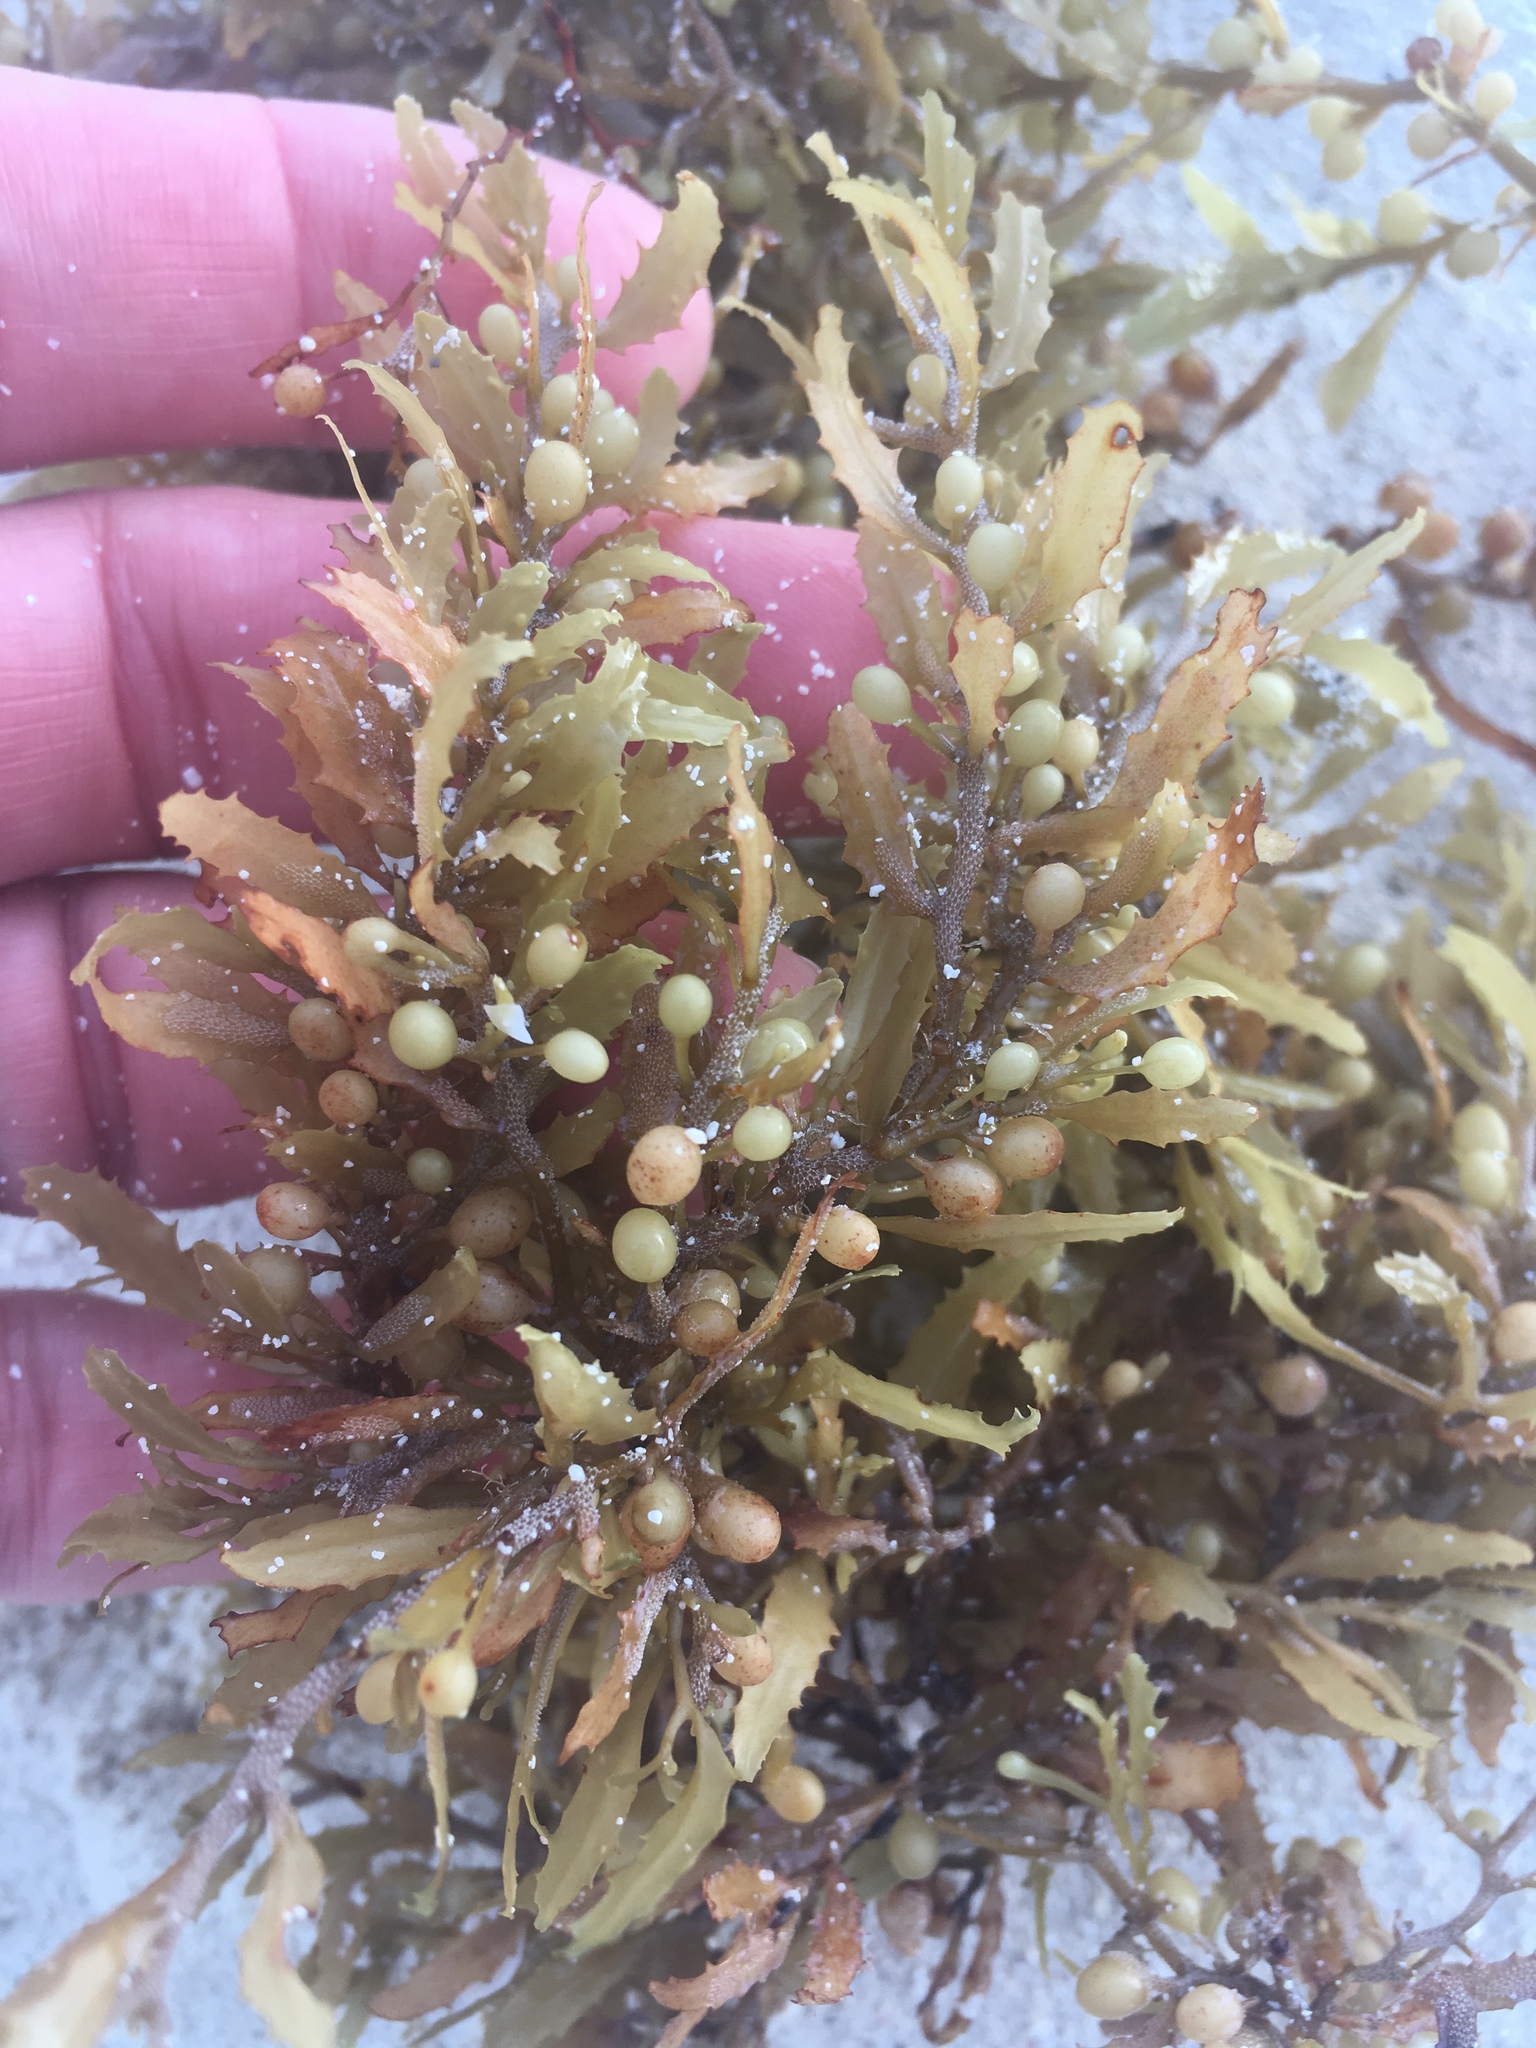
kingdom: Chromista
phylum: Ochrophyta
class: Phaeophyceae
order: Fucales
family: Sargassaceae
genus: Sargassum
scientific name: Sargassum fluitans
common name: Sargassum seaweed
